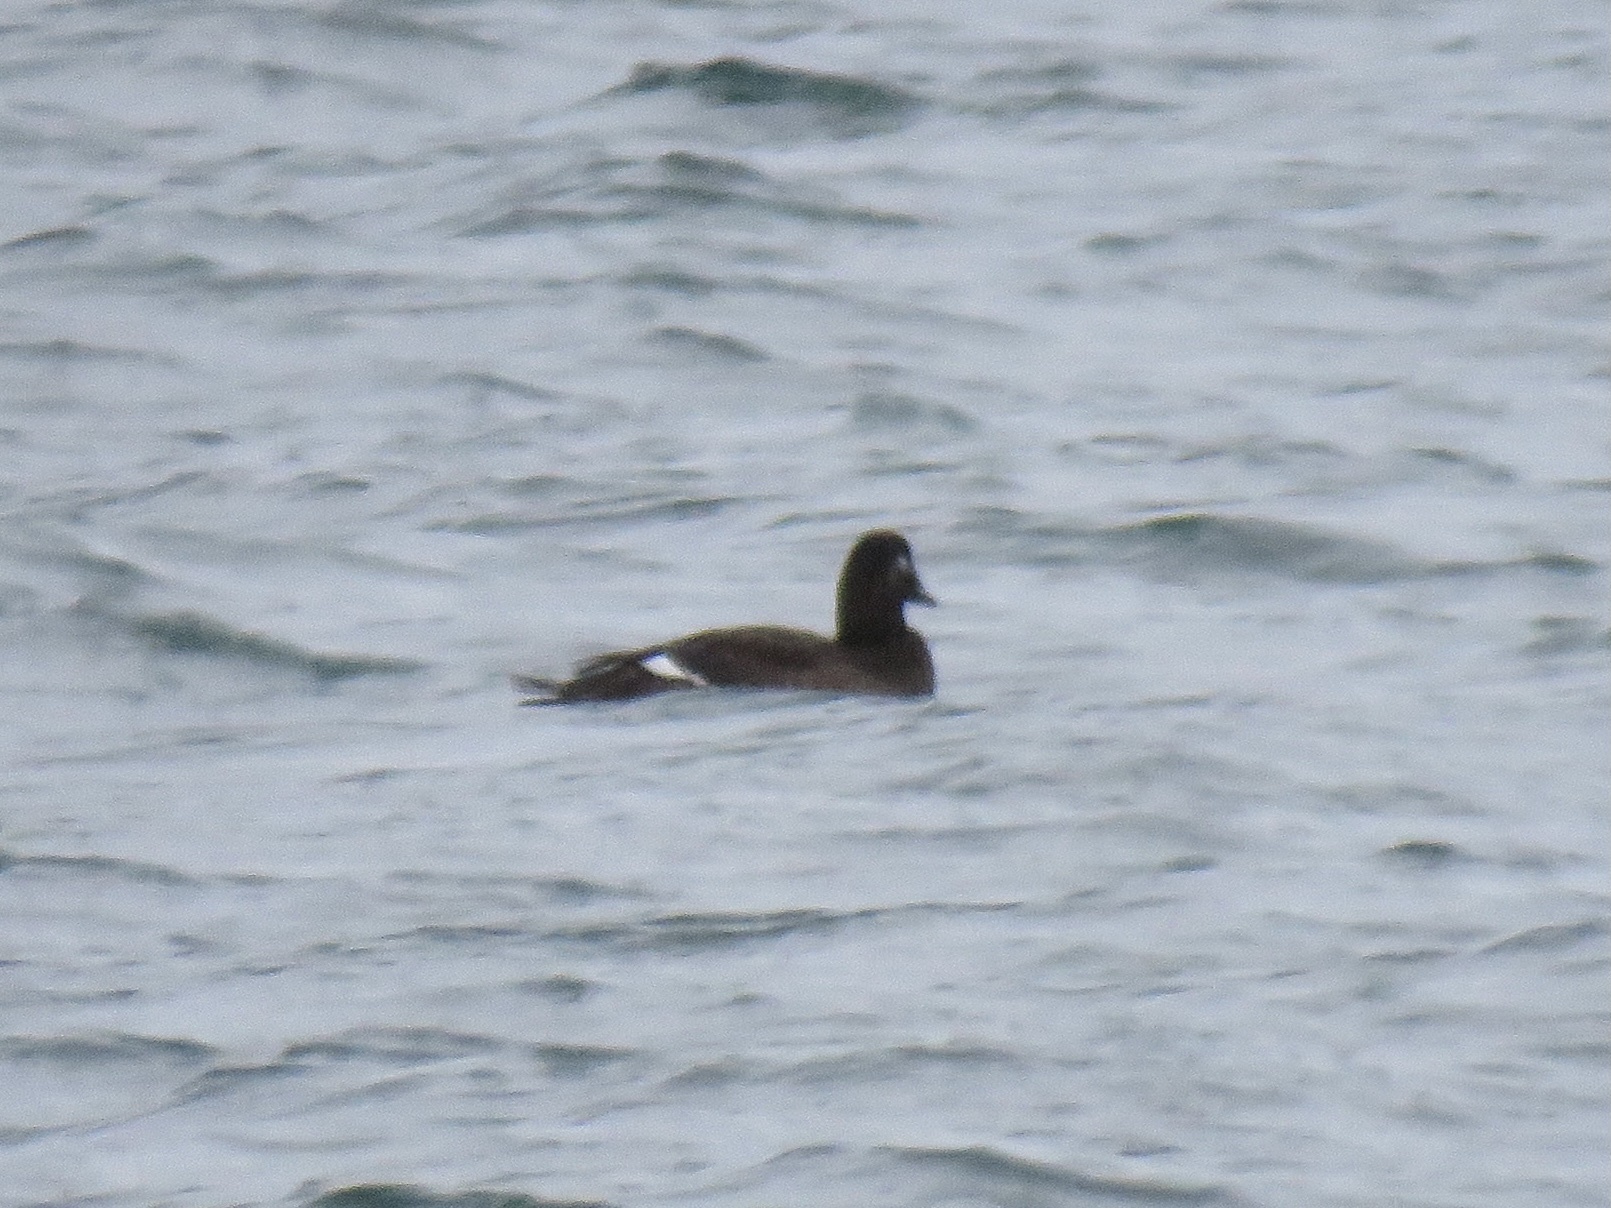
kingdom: Animalia
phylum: Chordata
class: Aves
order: Anseriformes
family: Anatidae
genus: Melanitta
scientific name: Melanitta deglandi
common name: White-winged scoter
